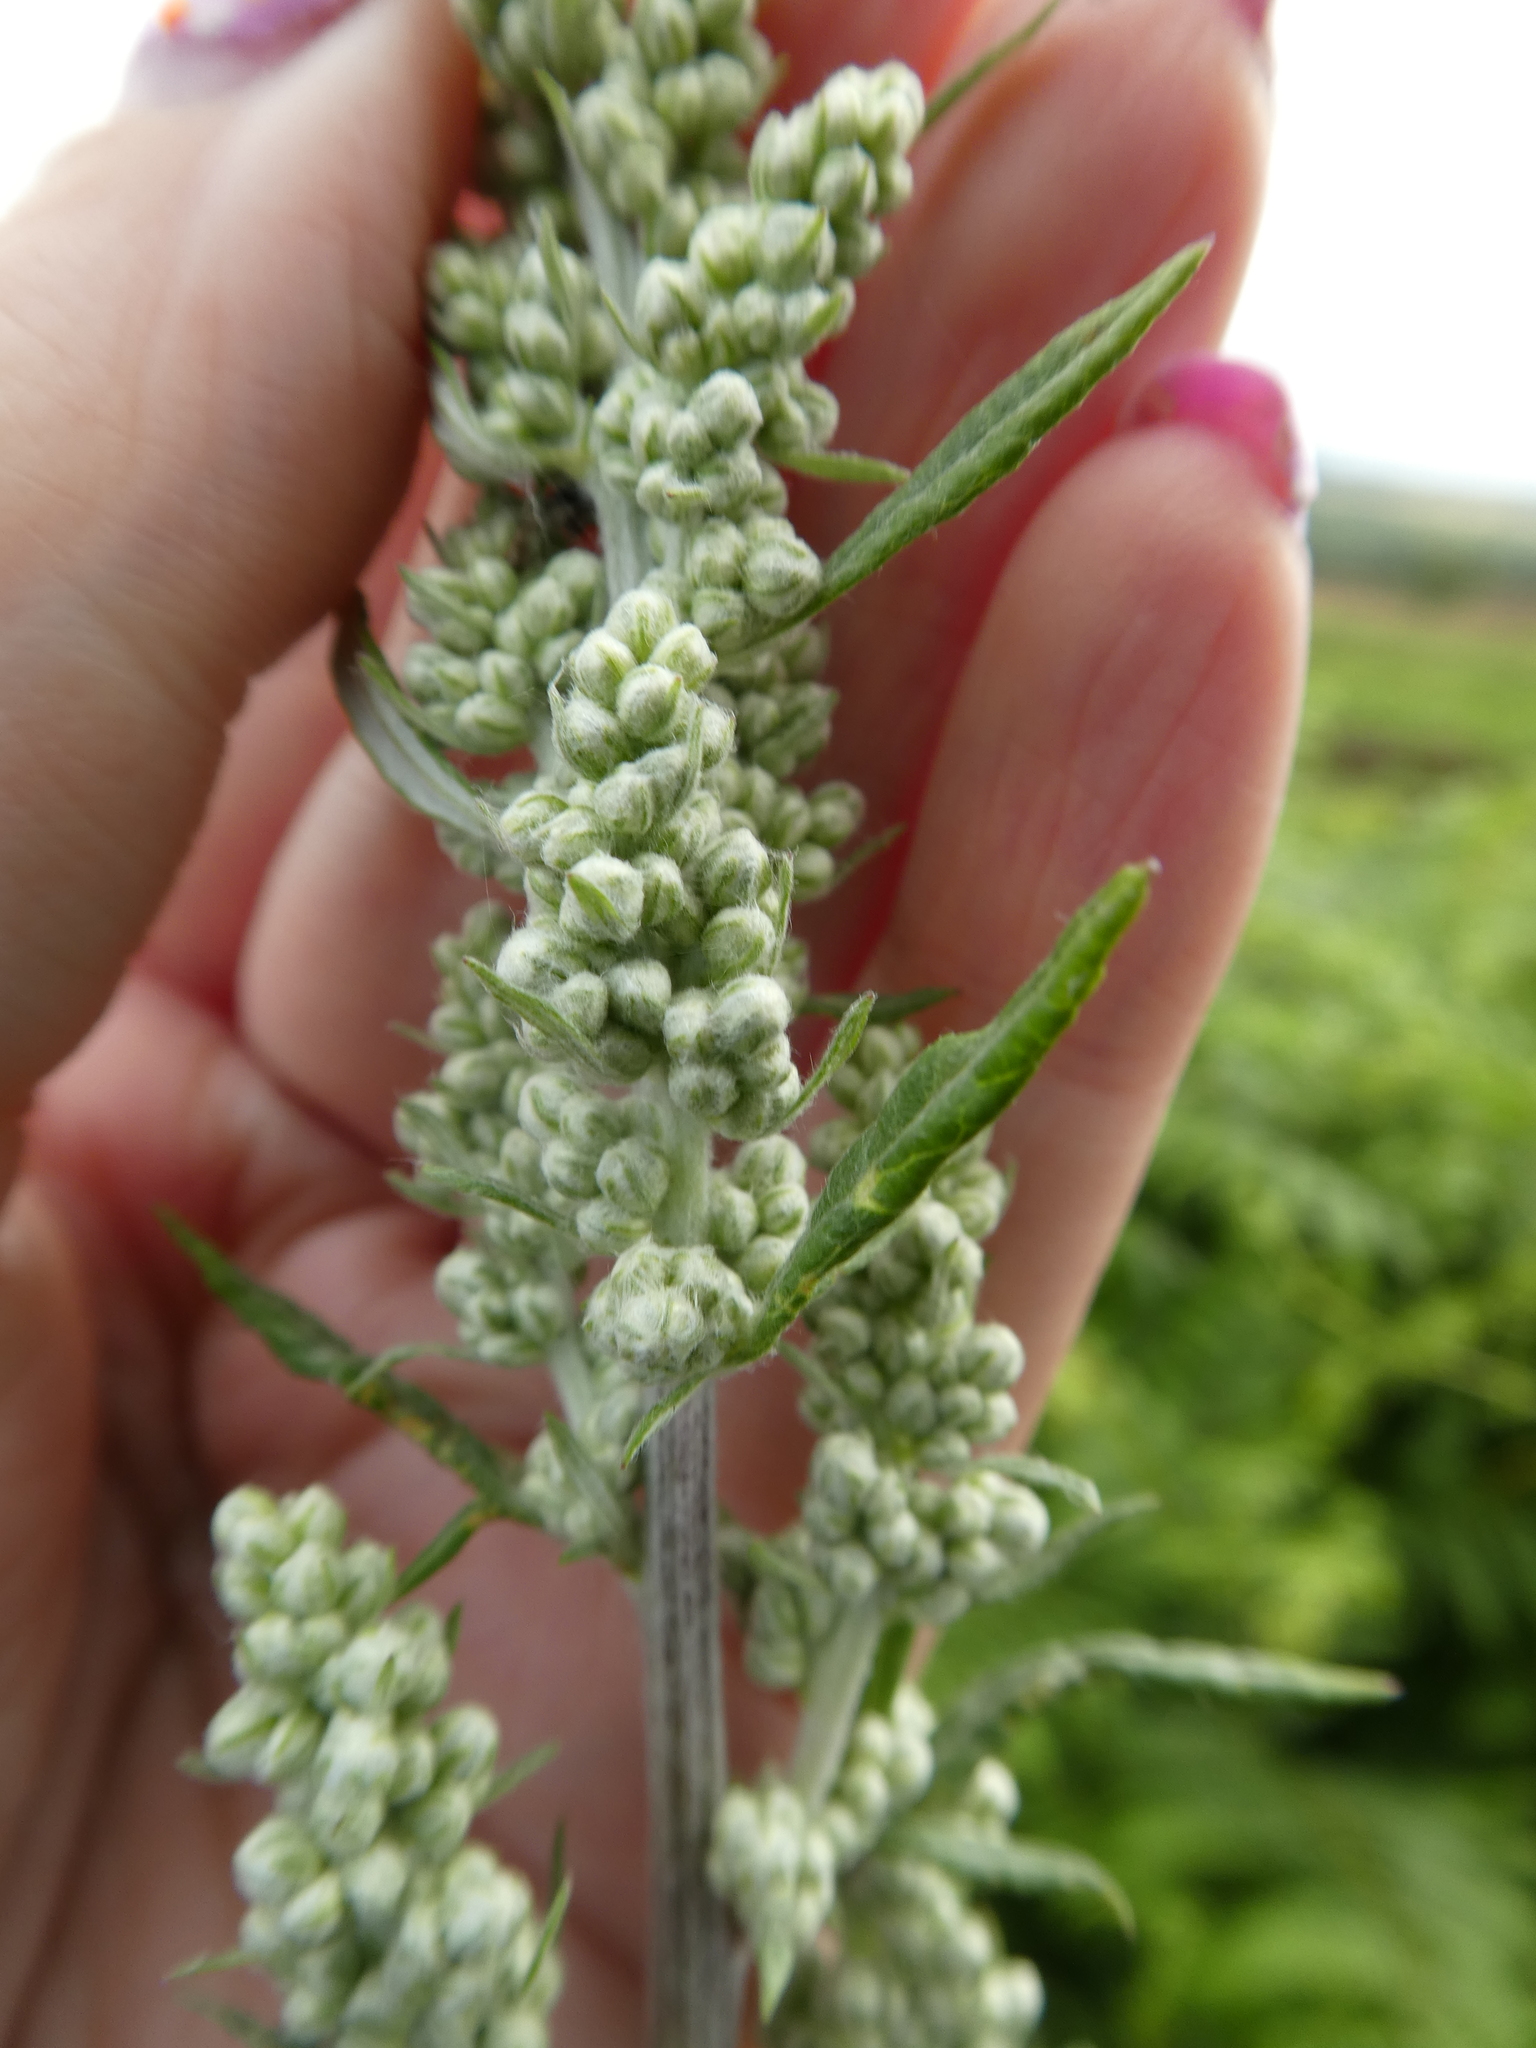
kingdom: Plantae
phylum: Tracheophyta
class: Magnoliopsida
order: Asterales
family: Asteraceae
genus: Artemisia
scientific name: Artemisia vulgaris
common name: Mugwort
